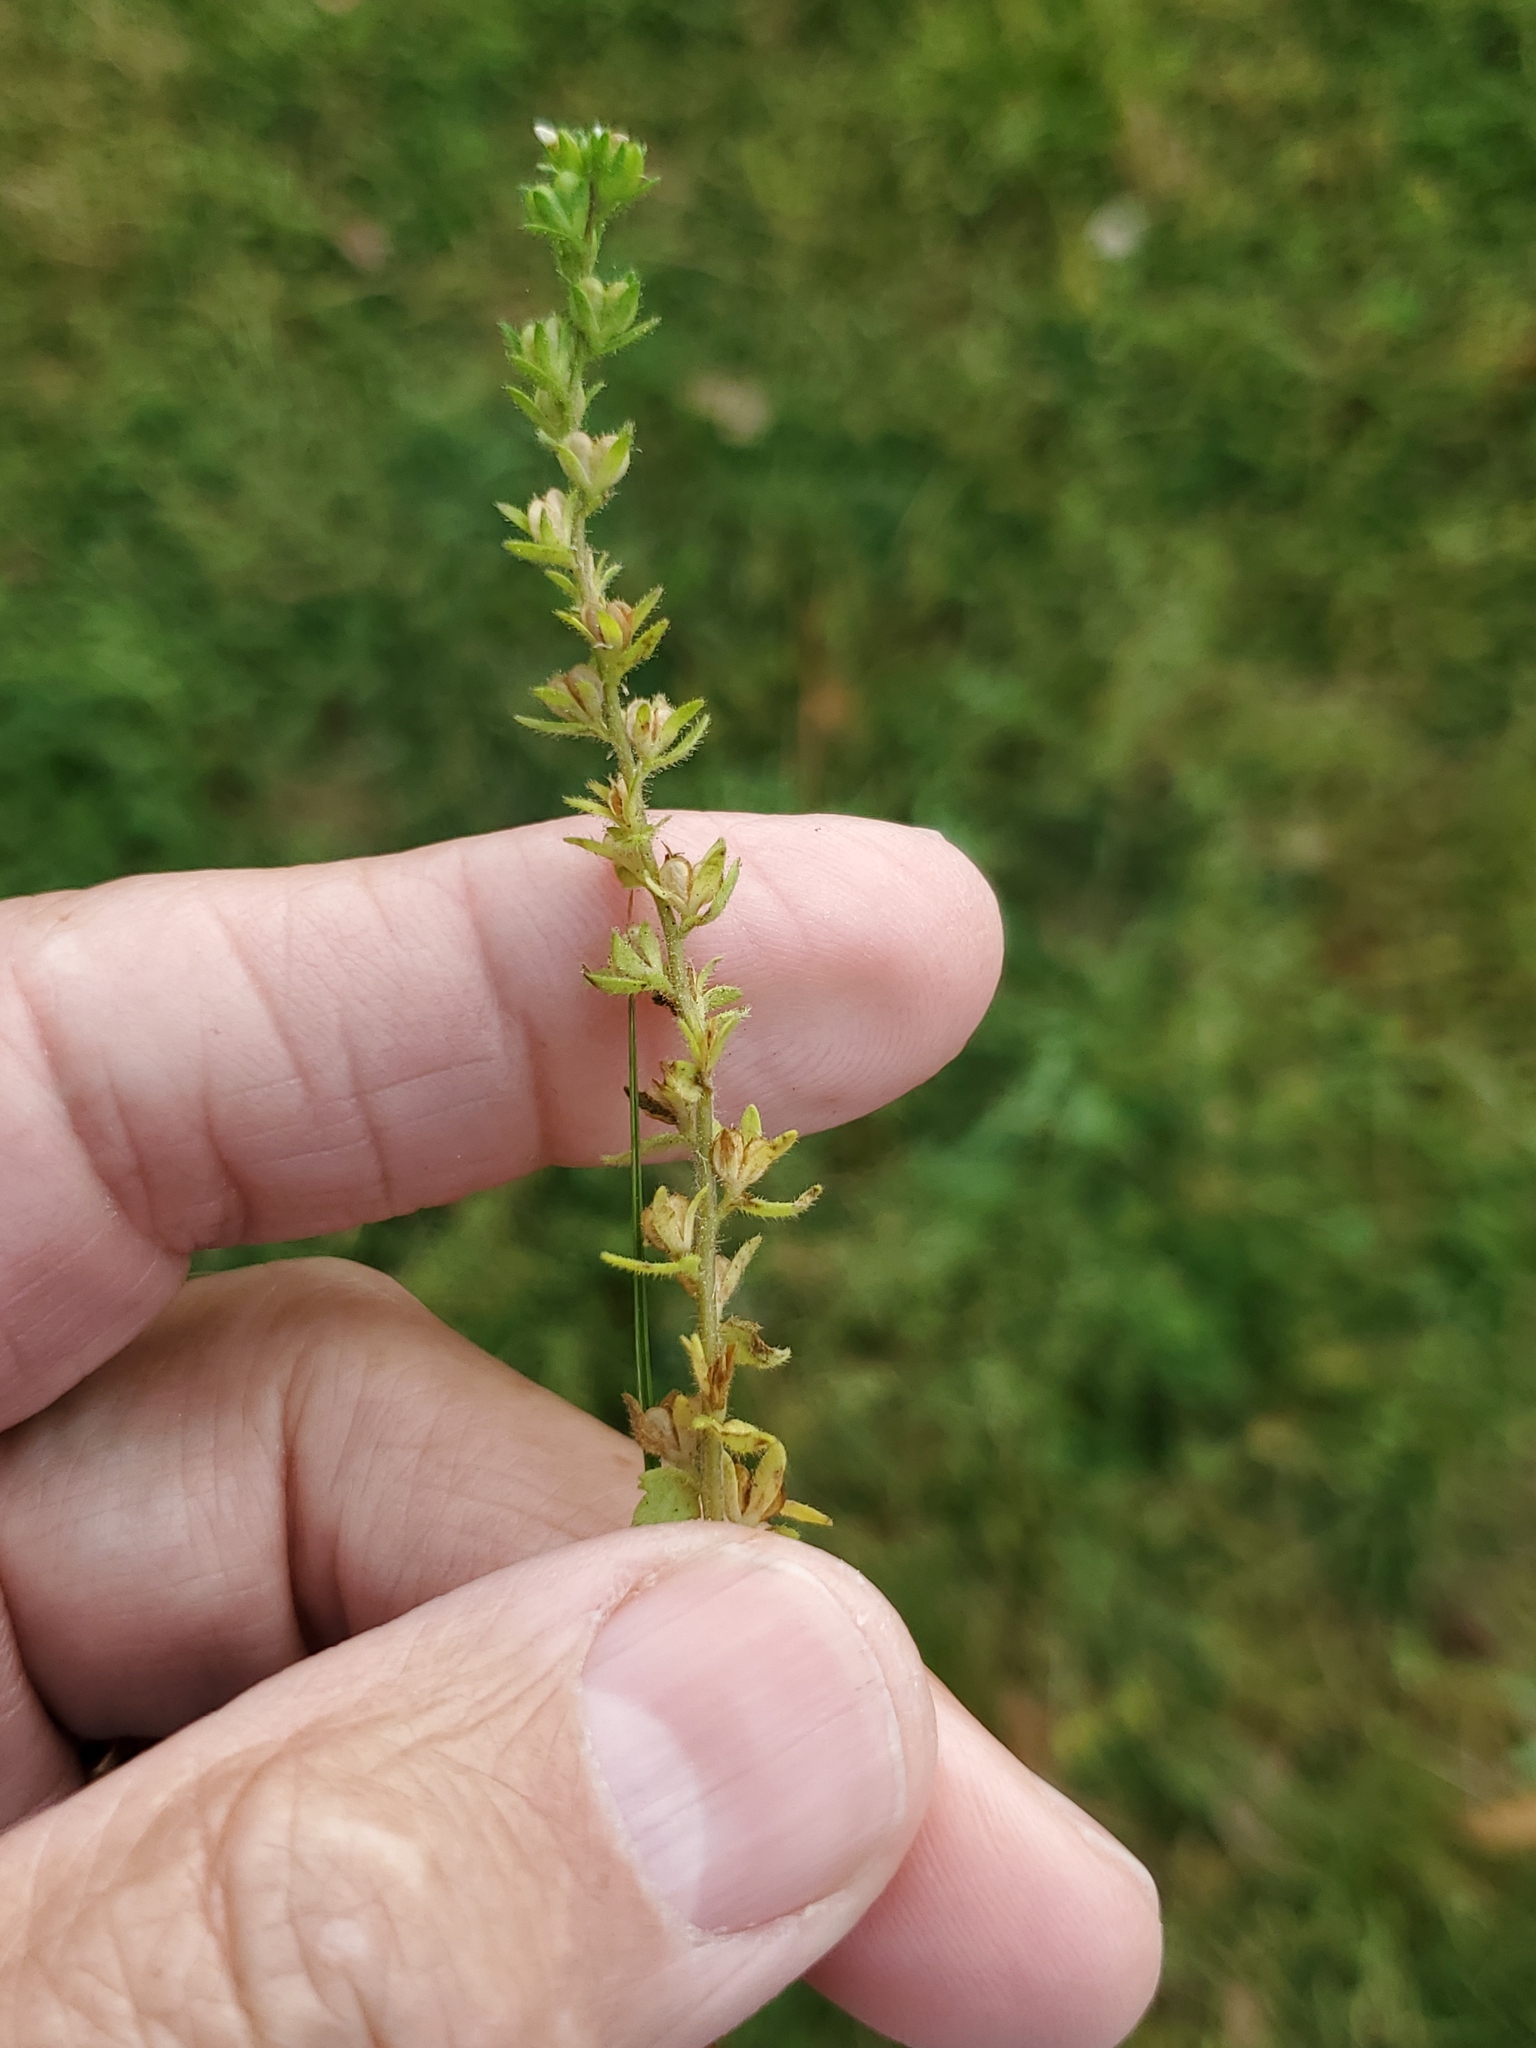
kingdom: Plantae
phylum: Tracheophyta
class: Magnoliopsida
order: Lamiales
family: Plantaginaceae
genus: Veronica
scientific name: Veronica arvensis
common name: Corn speedwell
